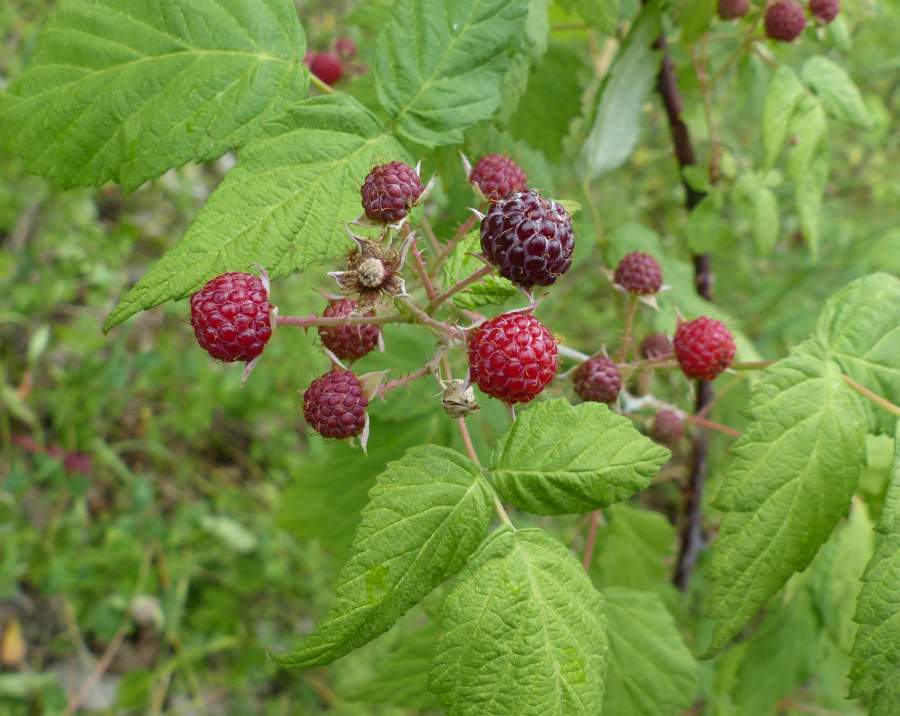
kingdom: Plantae
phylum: Tracheophyta
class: Magnoliopsida
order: Rosales
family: Rosaceae
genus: Rubus
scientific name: Rubus occidentalis
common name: Black raspberry
